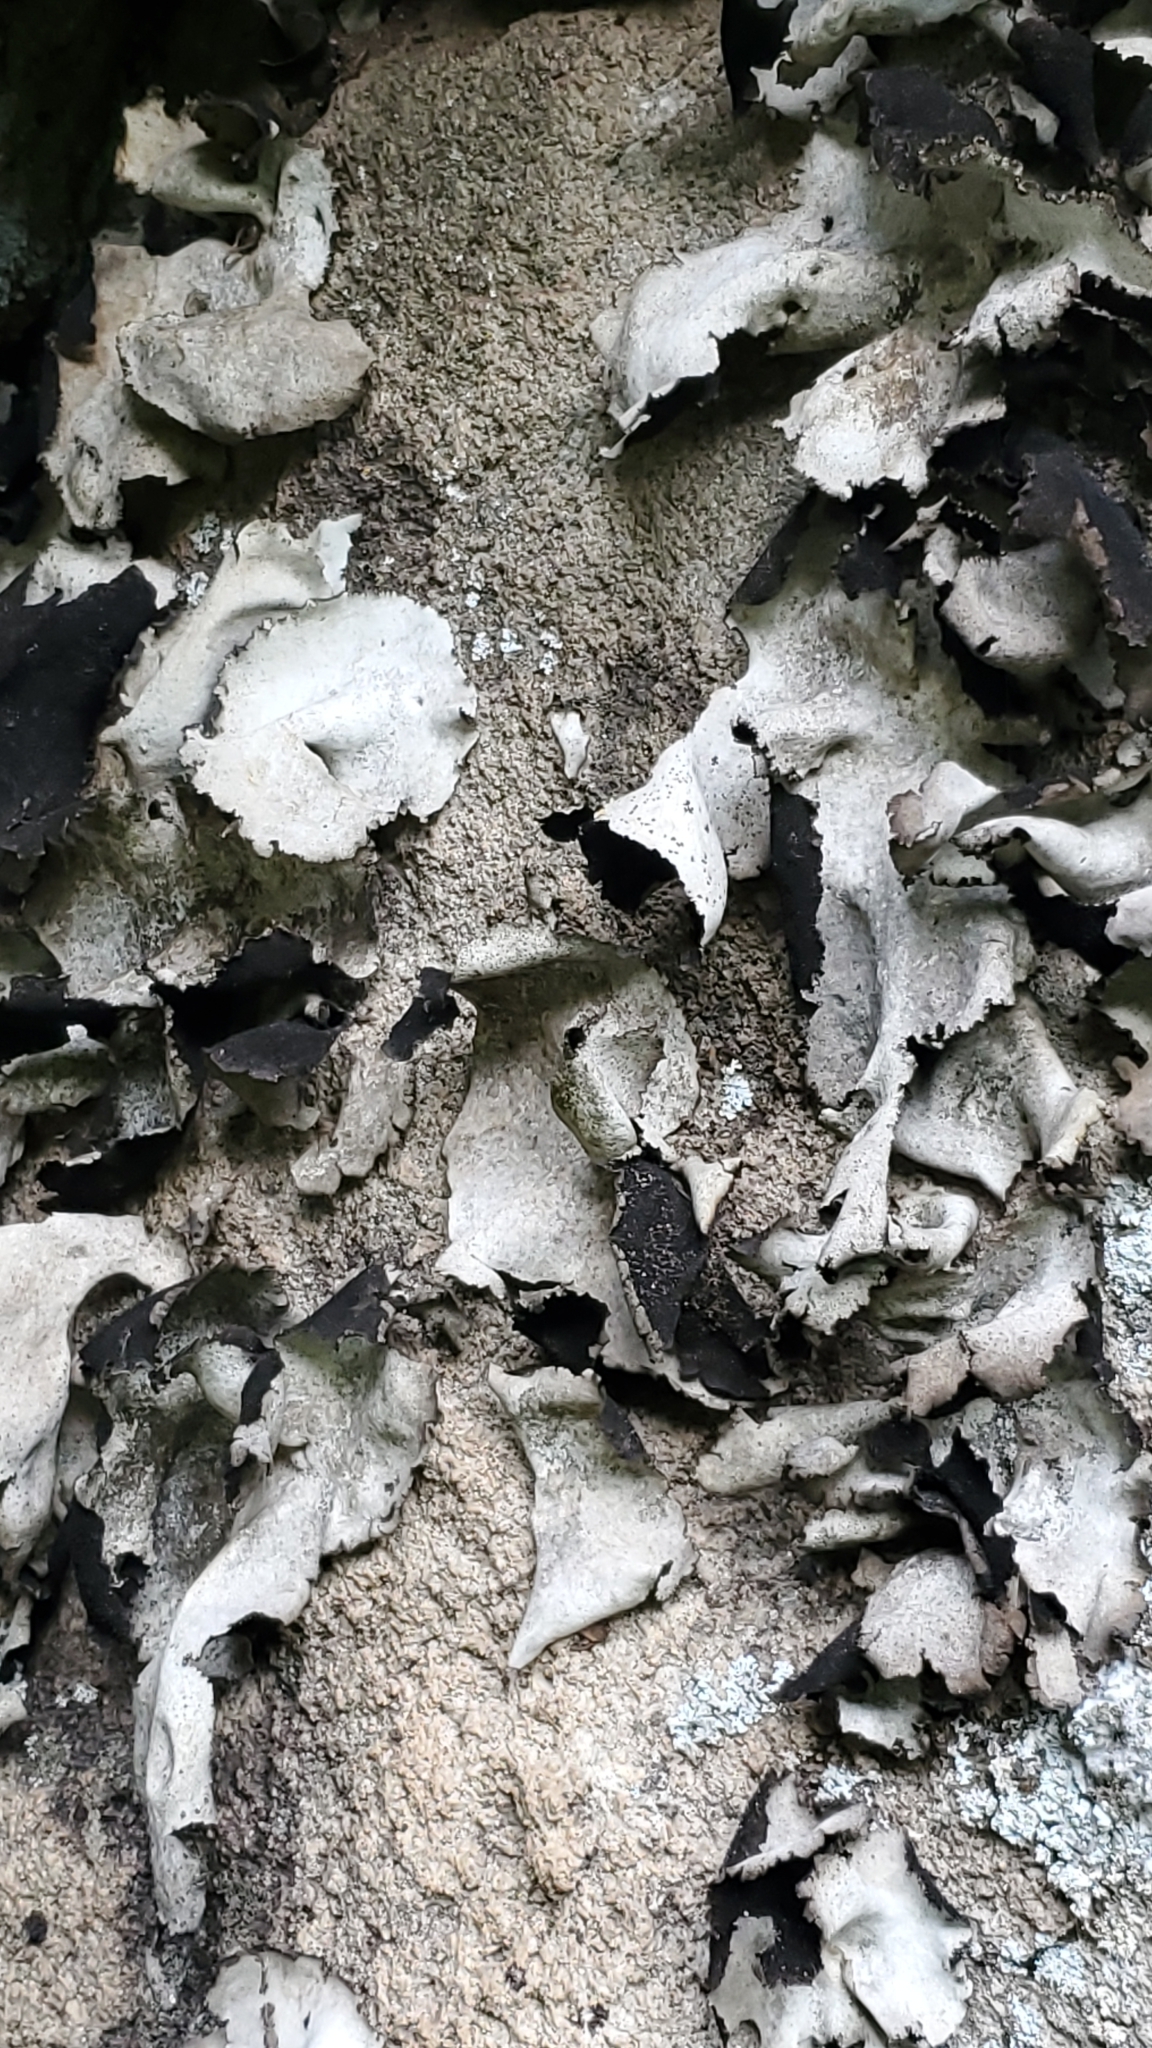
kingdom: Fungi
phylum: Ascomycota
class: Lecanoromycetes
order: Umbilicariales
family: Umbilicariaceae
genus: Umbilicaria
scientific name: Umbilicaria americana
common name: Frosted rock tripe
